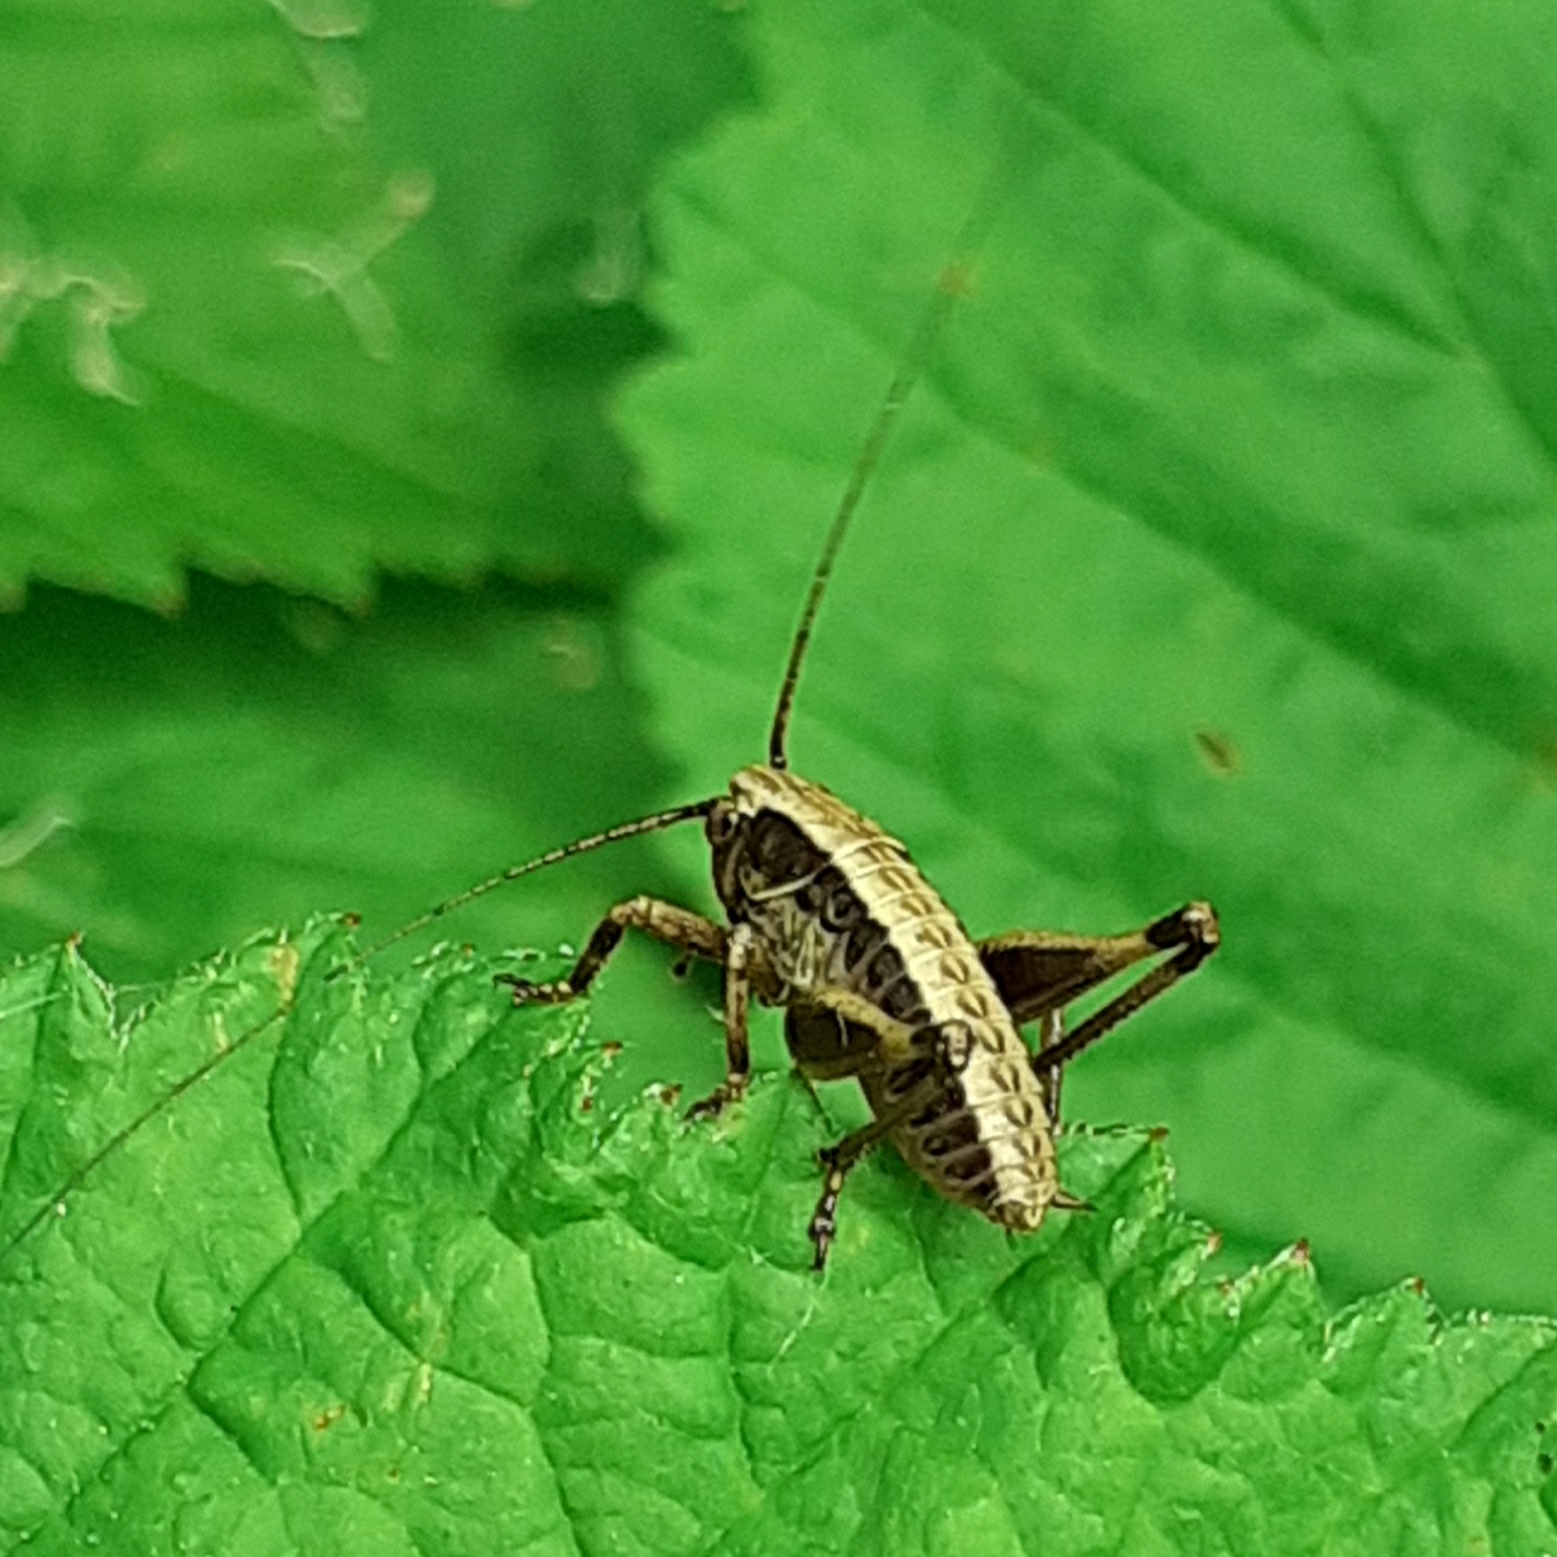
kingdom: Animalia
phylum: Arthropoda
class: Insecta
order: Orthoptera
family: Tettigoniidae
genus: Pholidoptera
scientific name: Pholidoptera griseoaptera
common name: Dark bush-cricket
